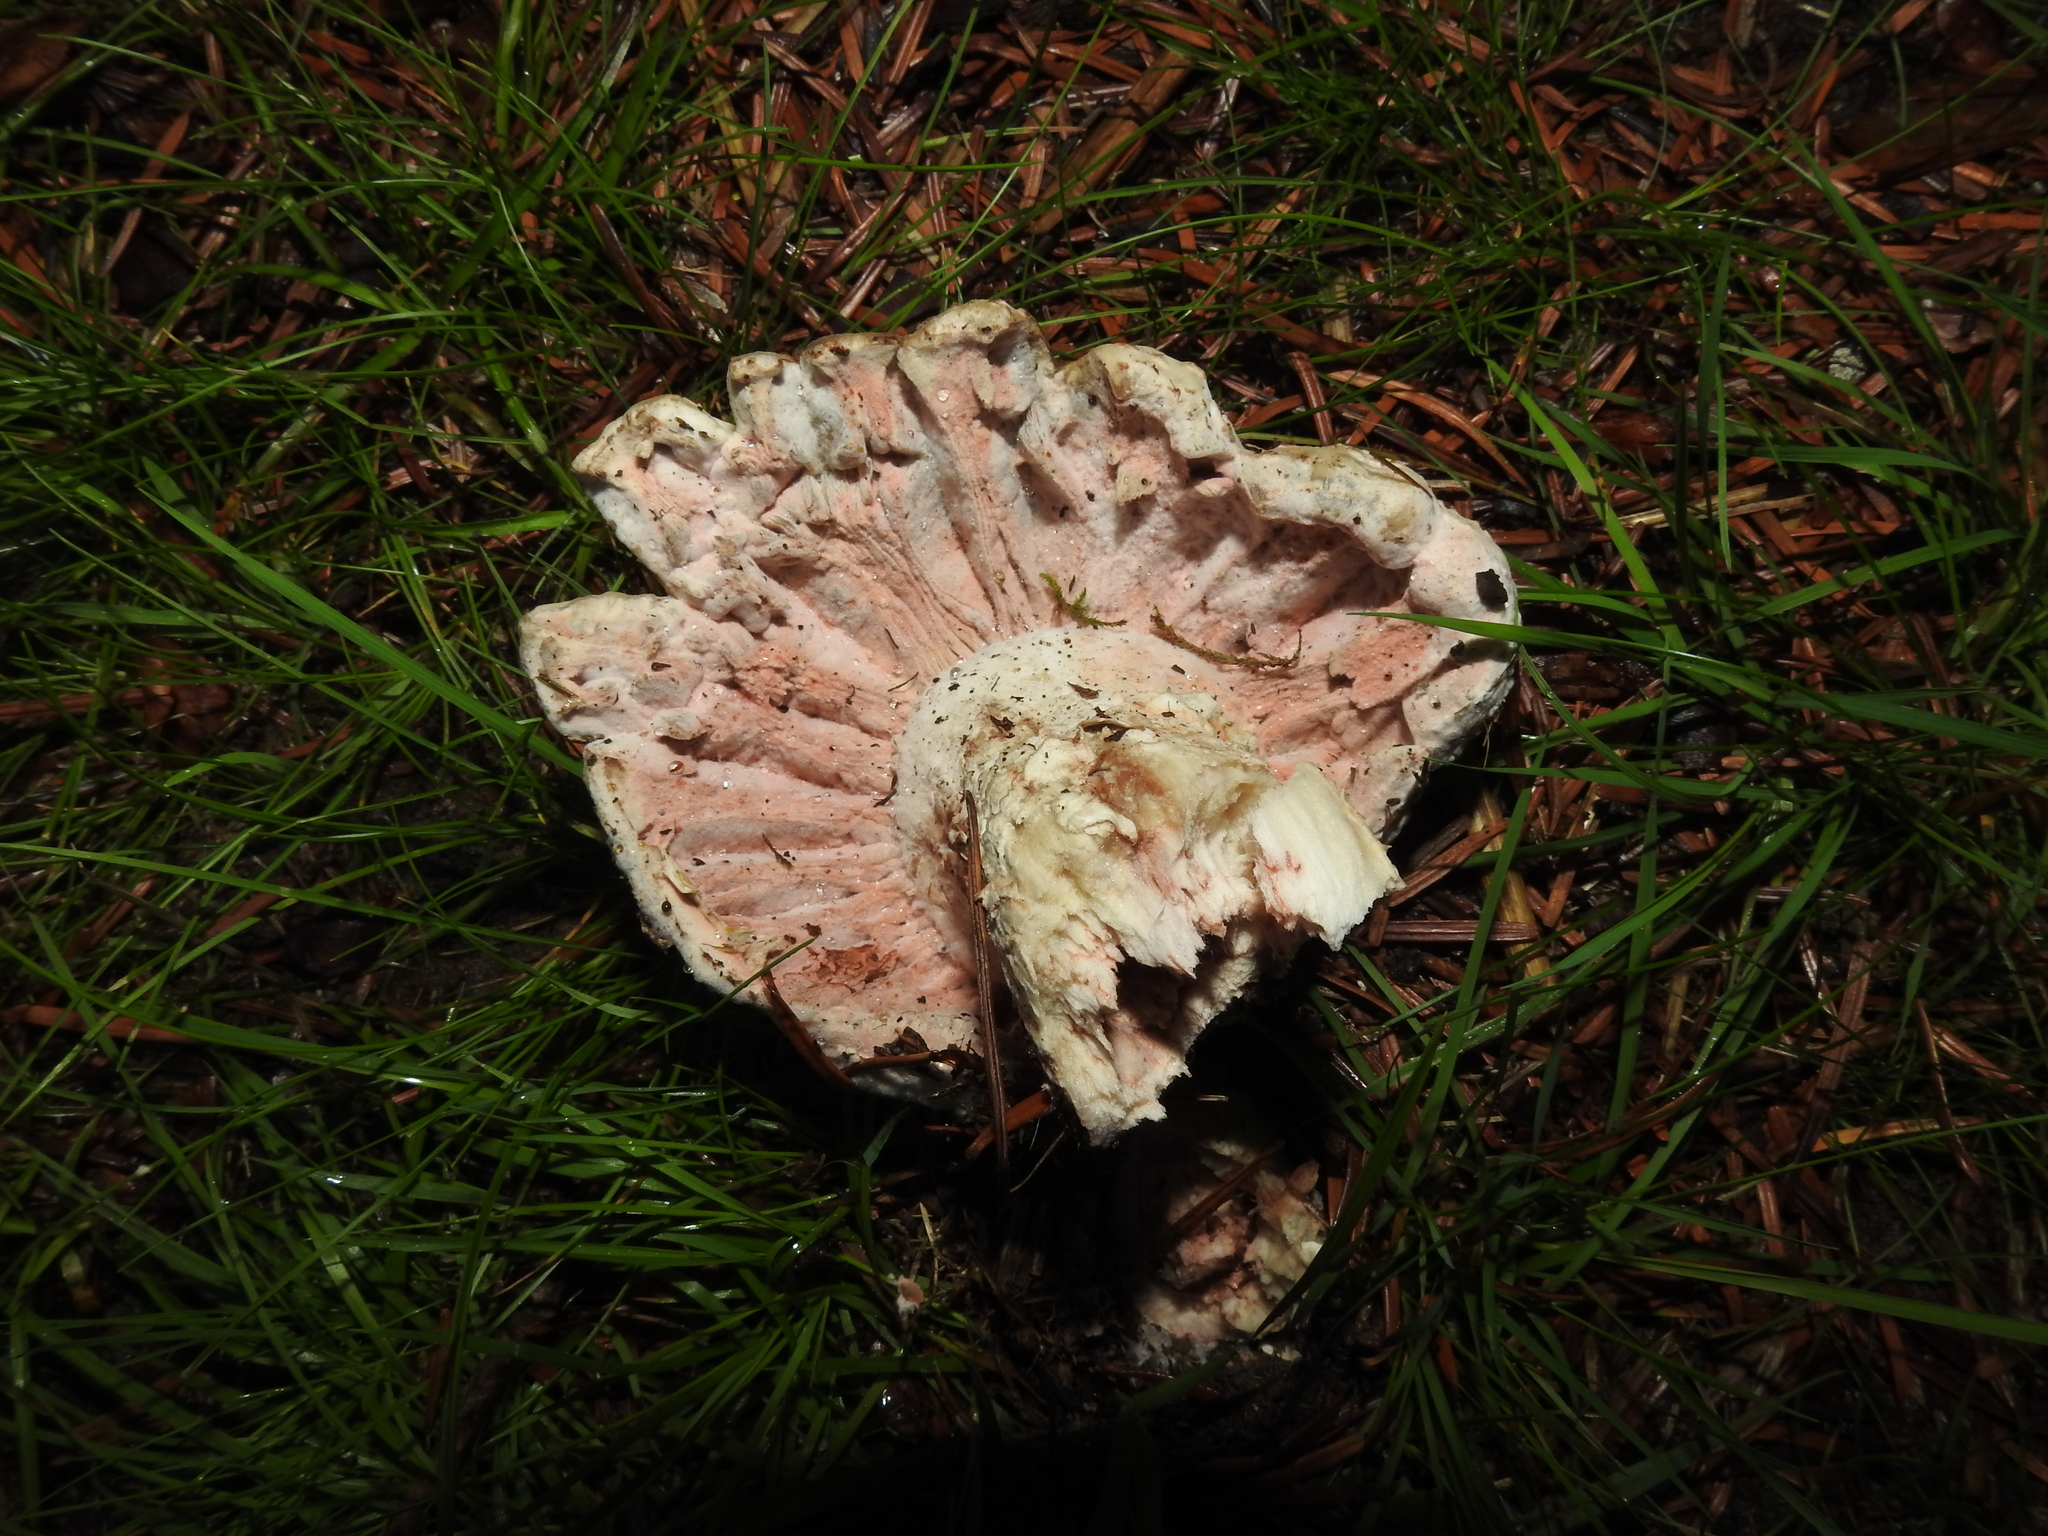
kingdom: Fungi
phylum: Ascomycota
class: Sordariomycetes
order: Hypocreales
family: Hypocreaceae
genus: Mycogone
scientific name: Mycogone rosea
